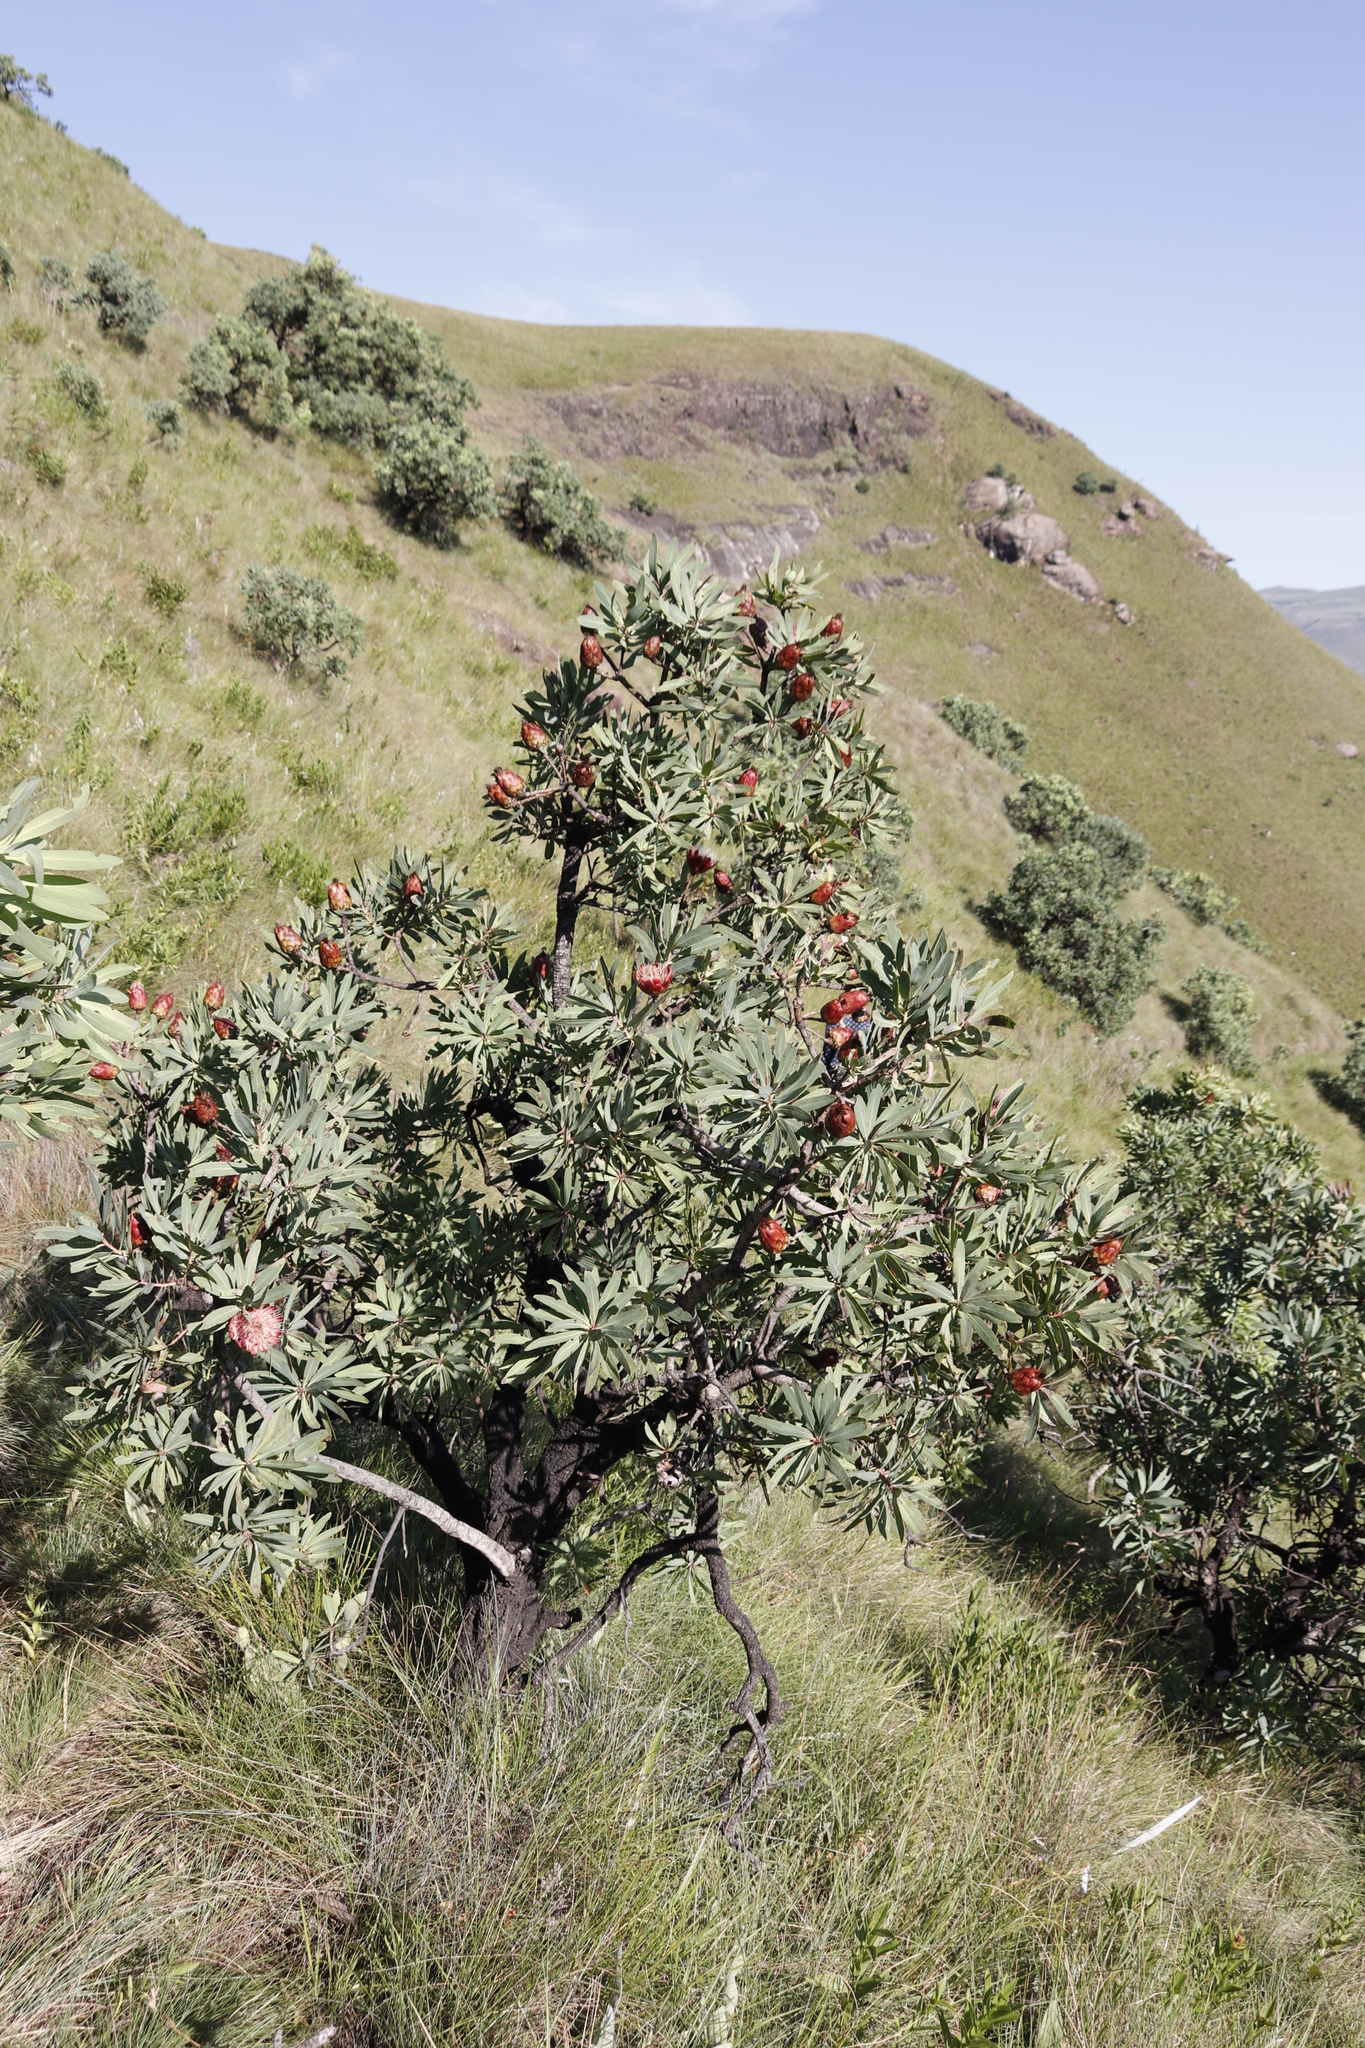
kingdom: Plantae
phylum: Tracheophyta
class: Magnoliopsida
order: Proteales
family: Proteaceae
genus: Protea
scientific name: Protea caffra
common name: Common sugarbush
